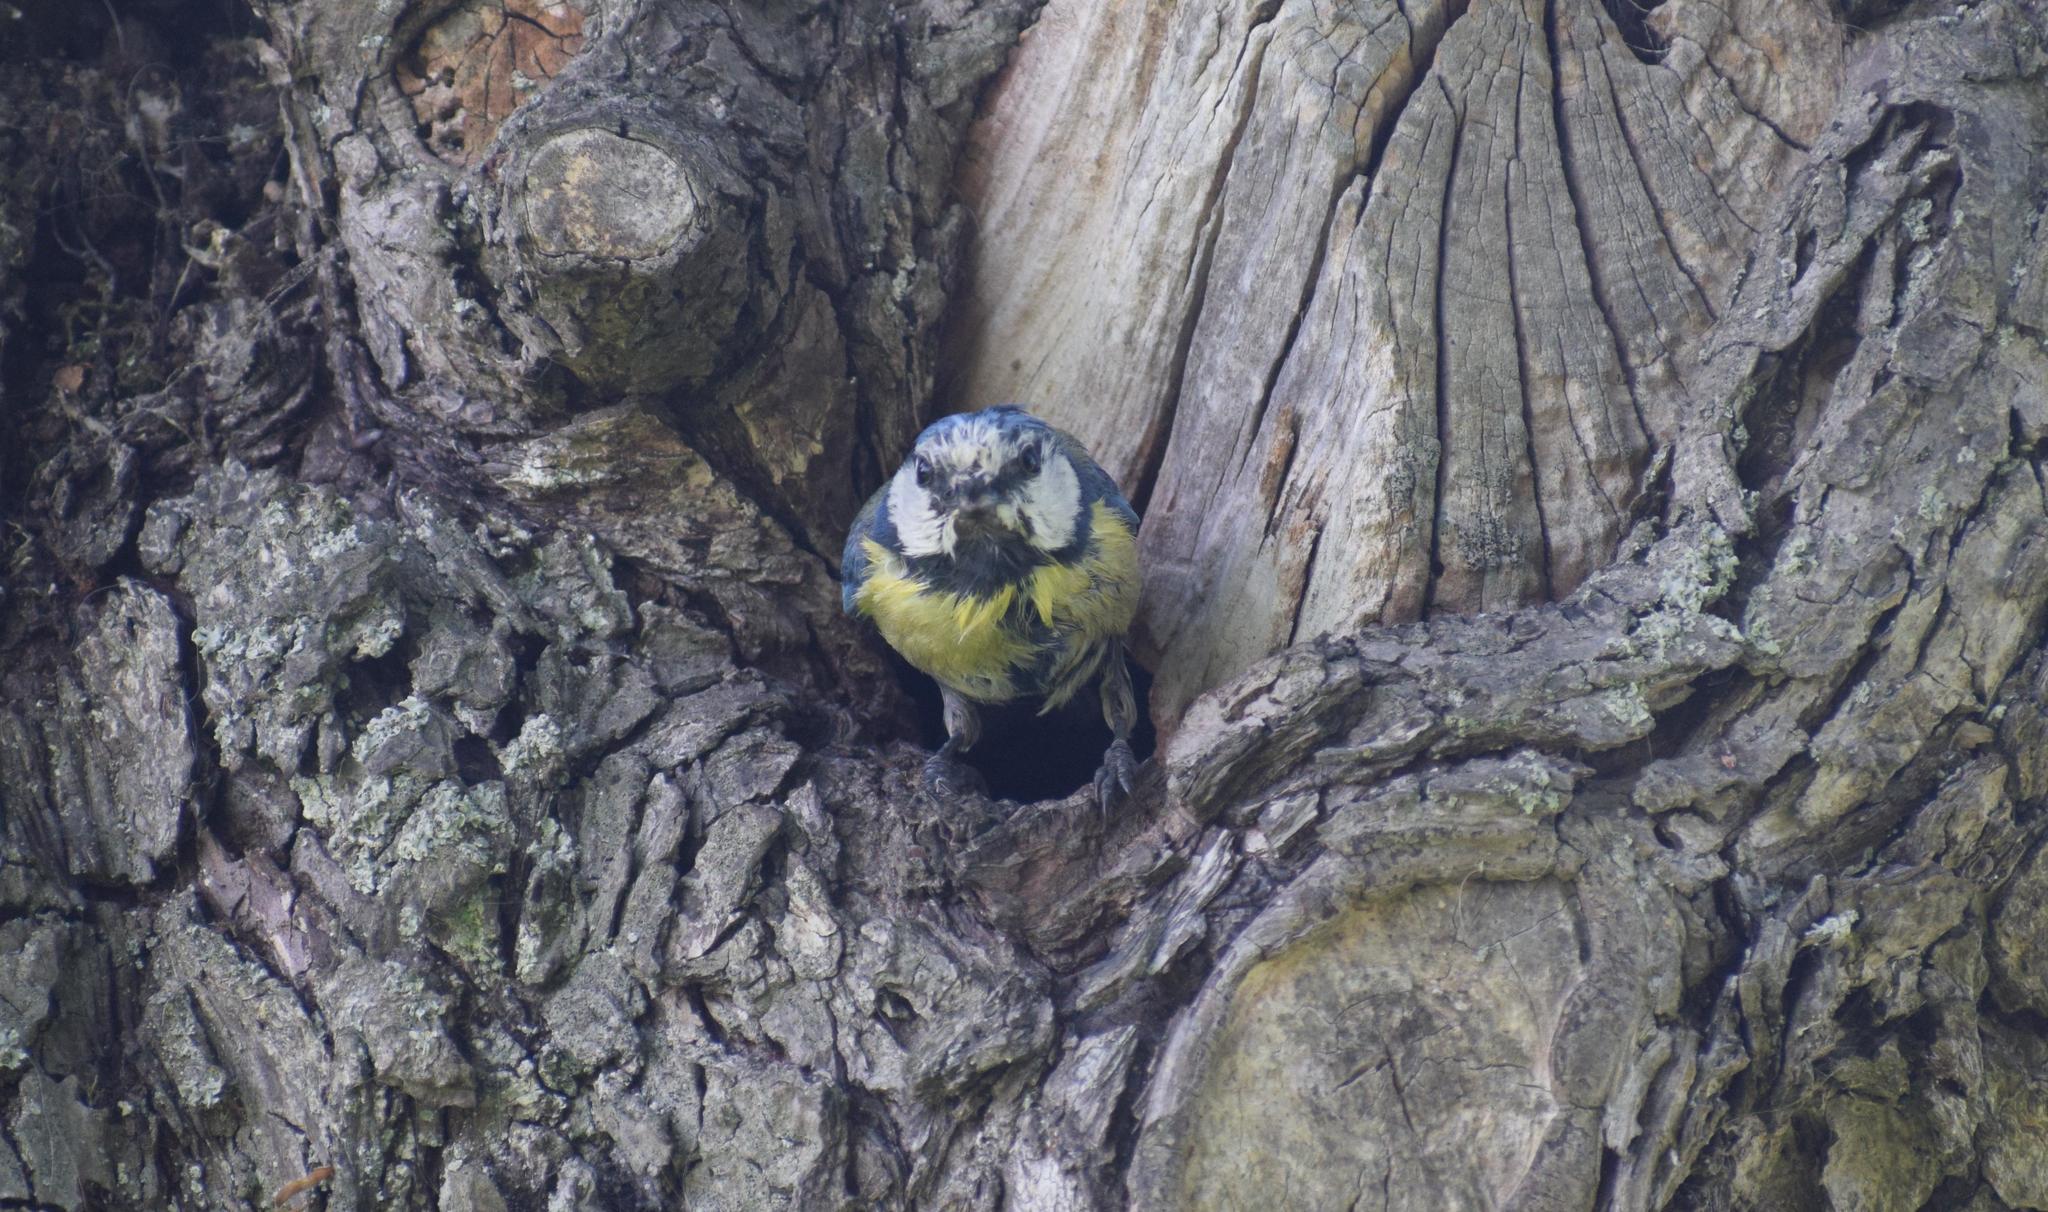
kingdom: Animalia
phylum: Chordata
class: Aves
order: Passeriformes
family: Paridae
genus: Cyanistes
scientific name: Cyanistes caeruleus
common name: Eurasian blue tit
